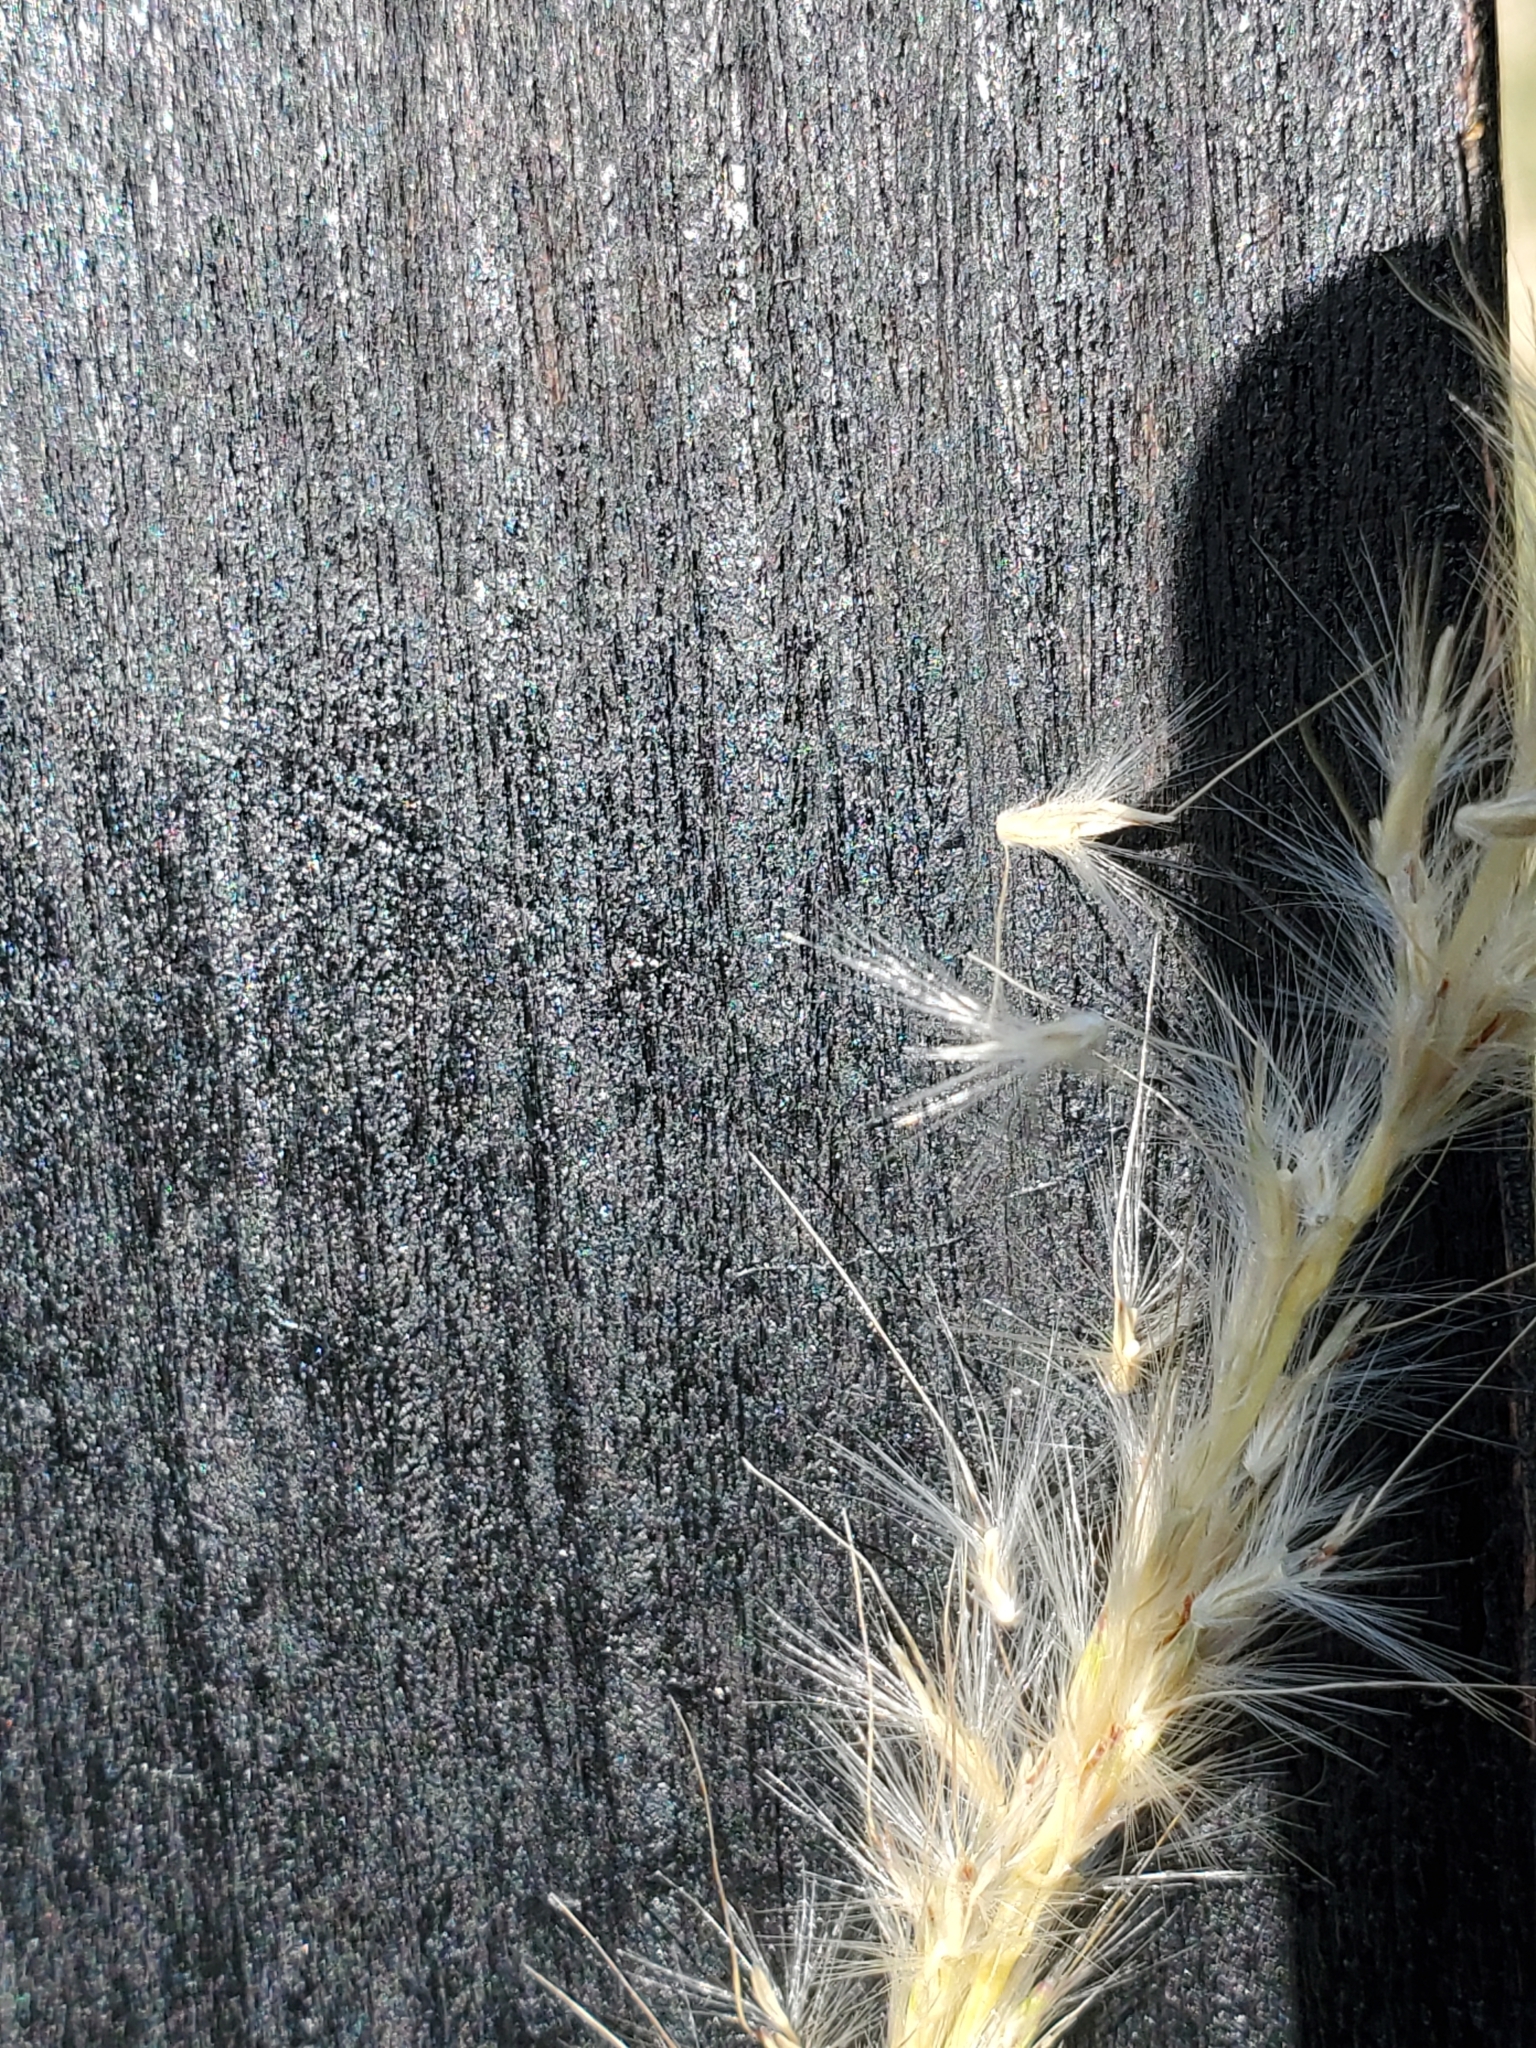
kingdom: Plantae
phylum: Tracheophyta
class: Liliopsida
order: Poales
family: Poaceae
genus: Bothriochloa
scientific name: Bothriochloa barbinodis
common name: Cane bluestem
